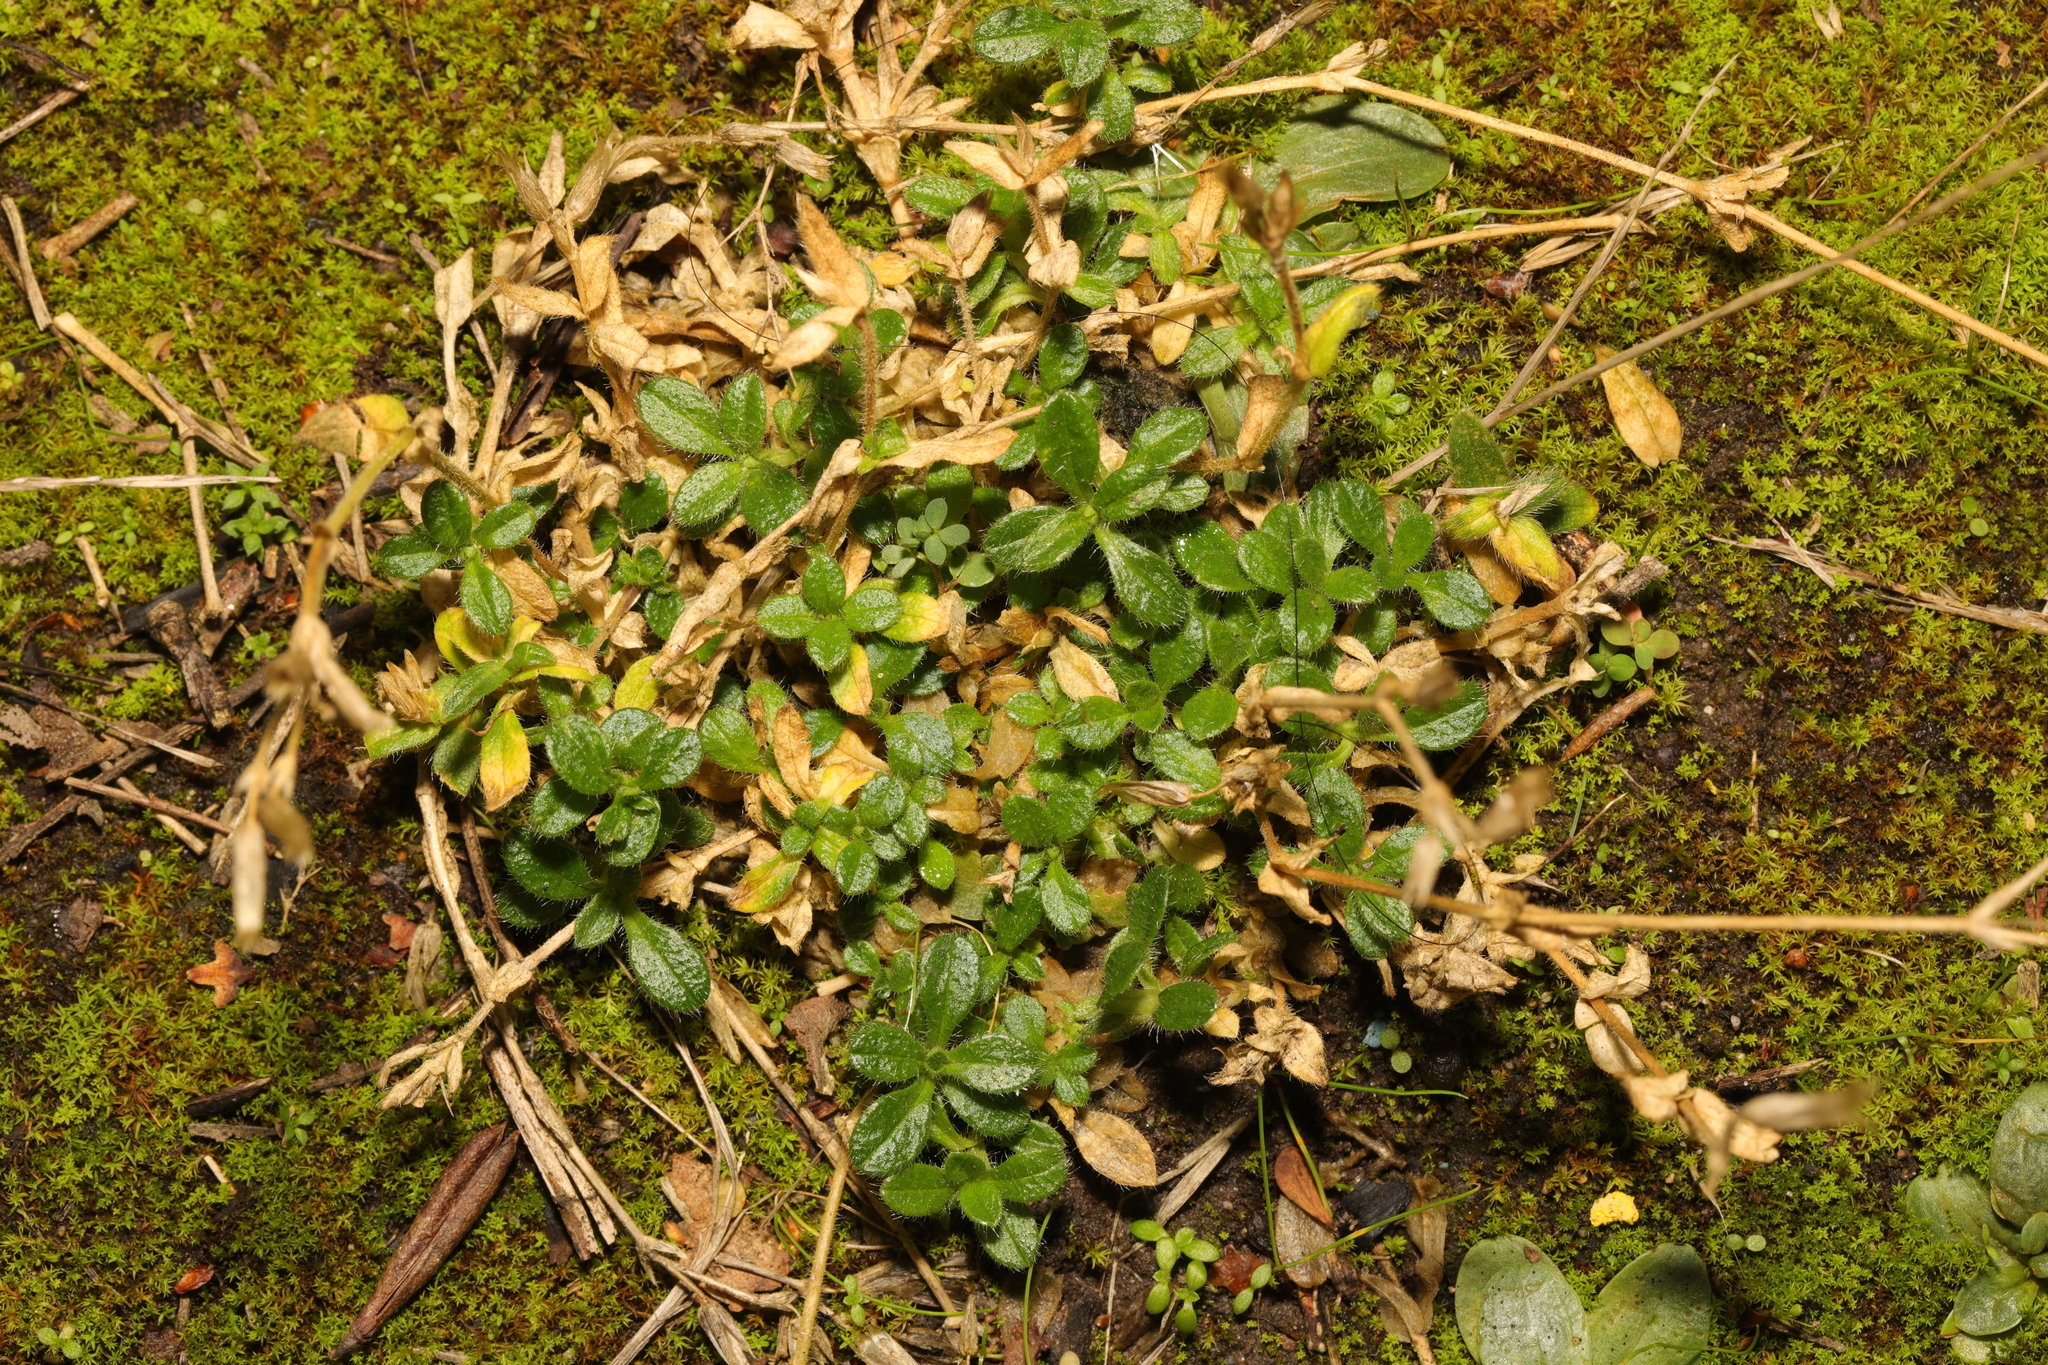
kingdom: Plantae
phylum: Tracheophyta
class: Magnoliopsida
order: Caryophyllales
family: Caryophyllaceae
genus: Cerastium
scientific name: Cerastium fontanum
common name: Common mouse-ear
